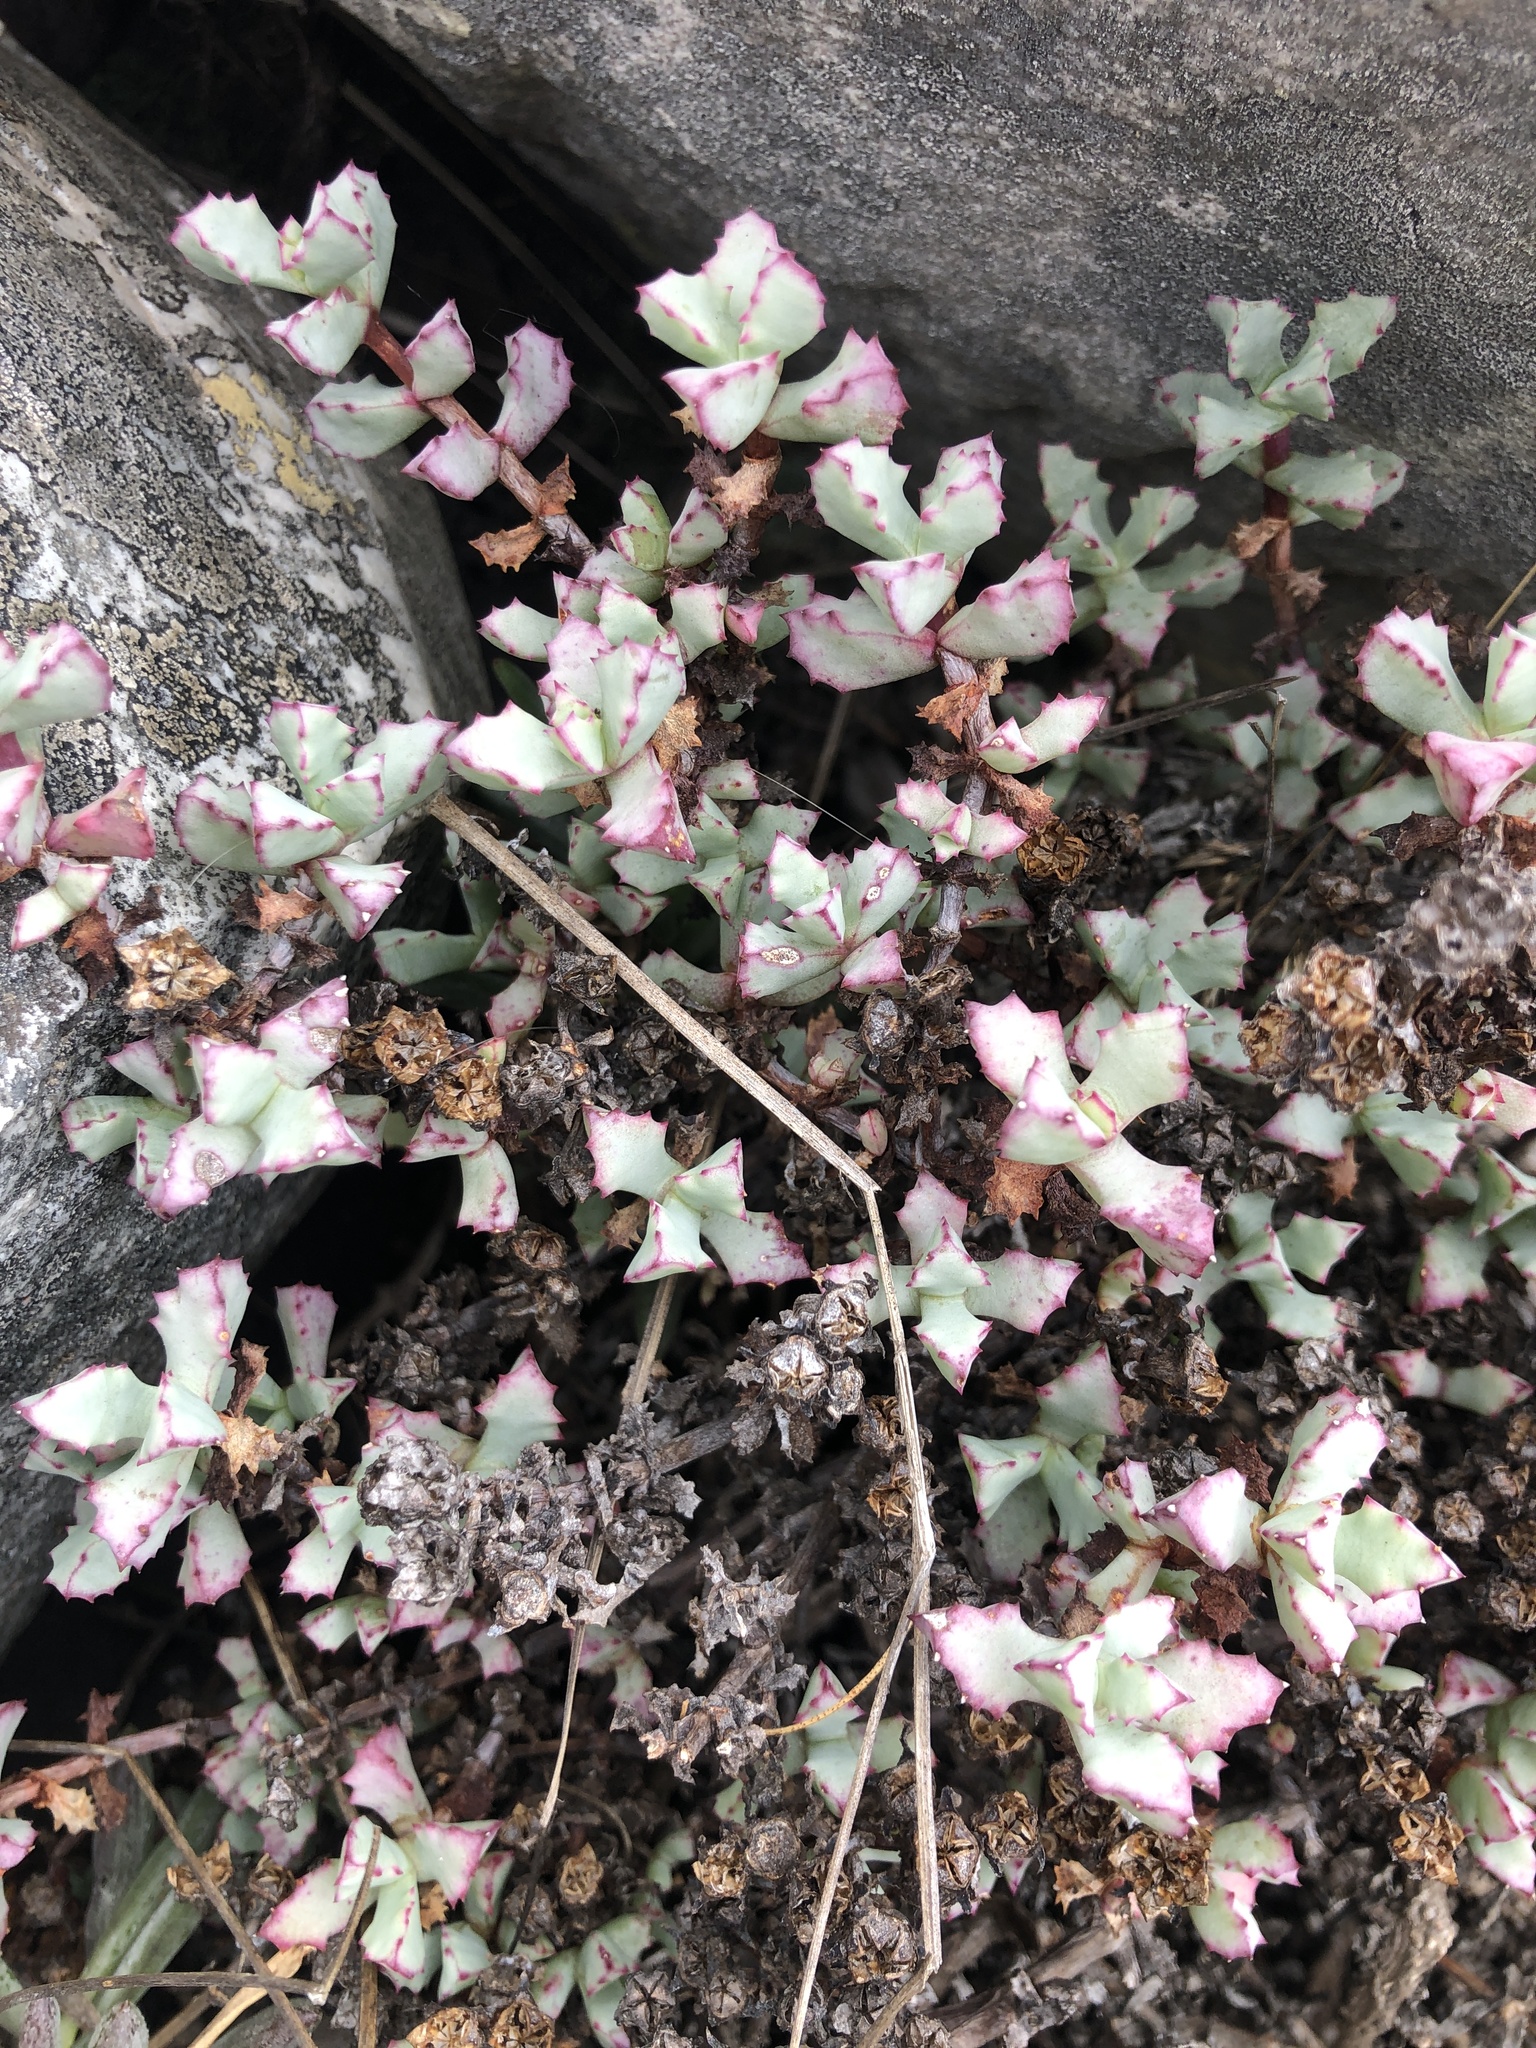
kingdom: Plantae
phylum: Tracheophyta
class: Magnoliopsida
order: Caryophyllales
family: Aizoaceae
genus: Oscularia
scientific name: Oscularia deltoides
